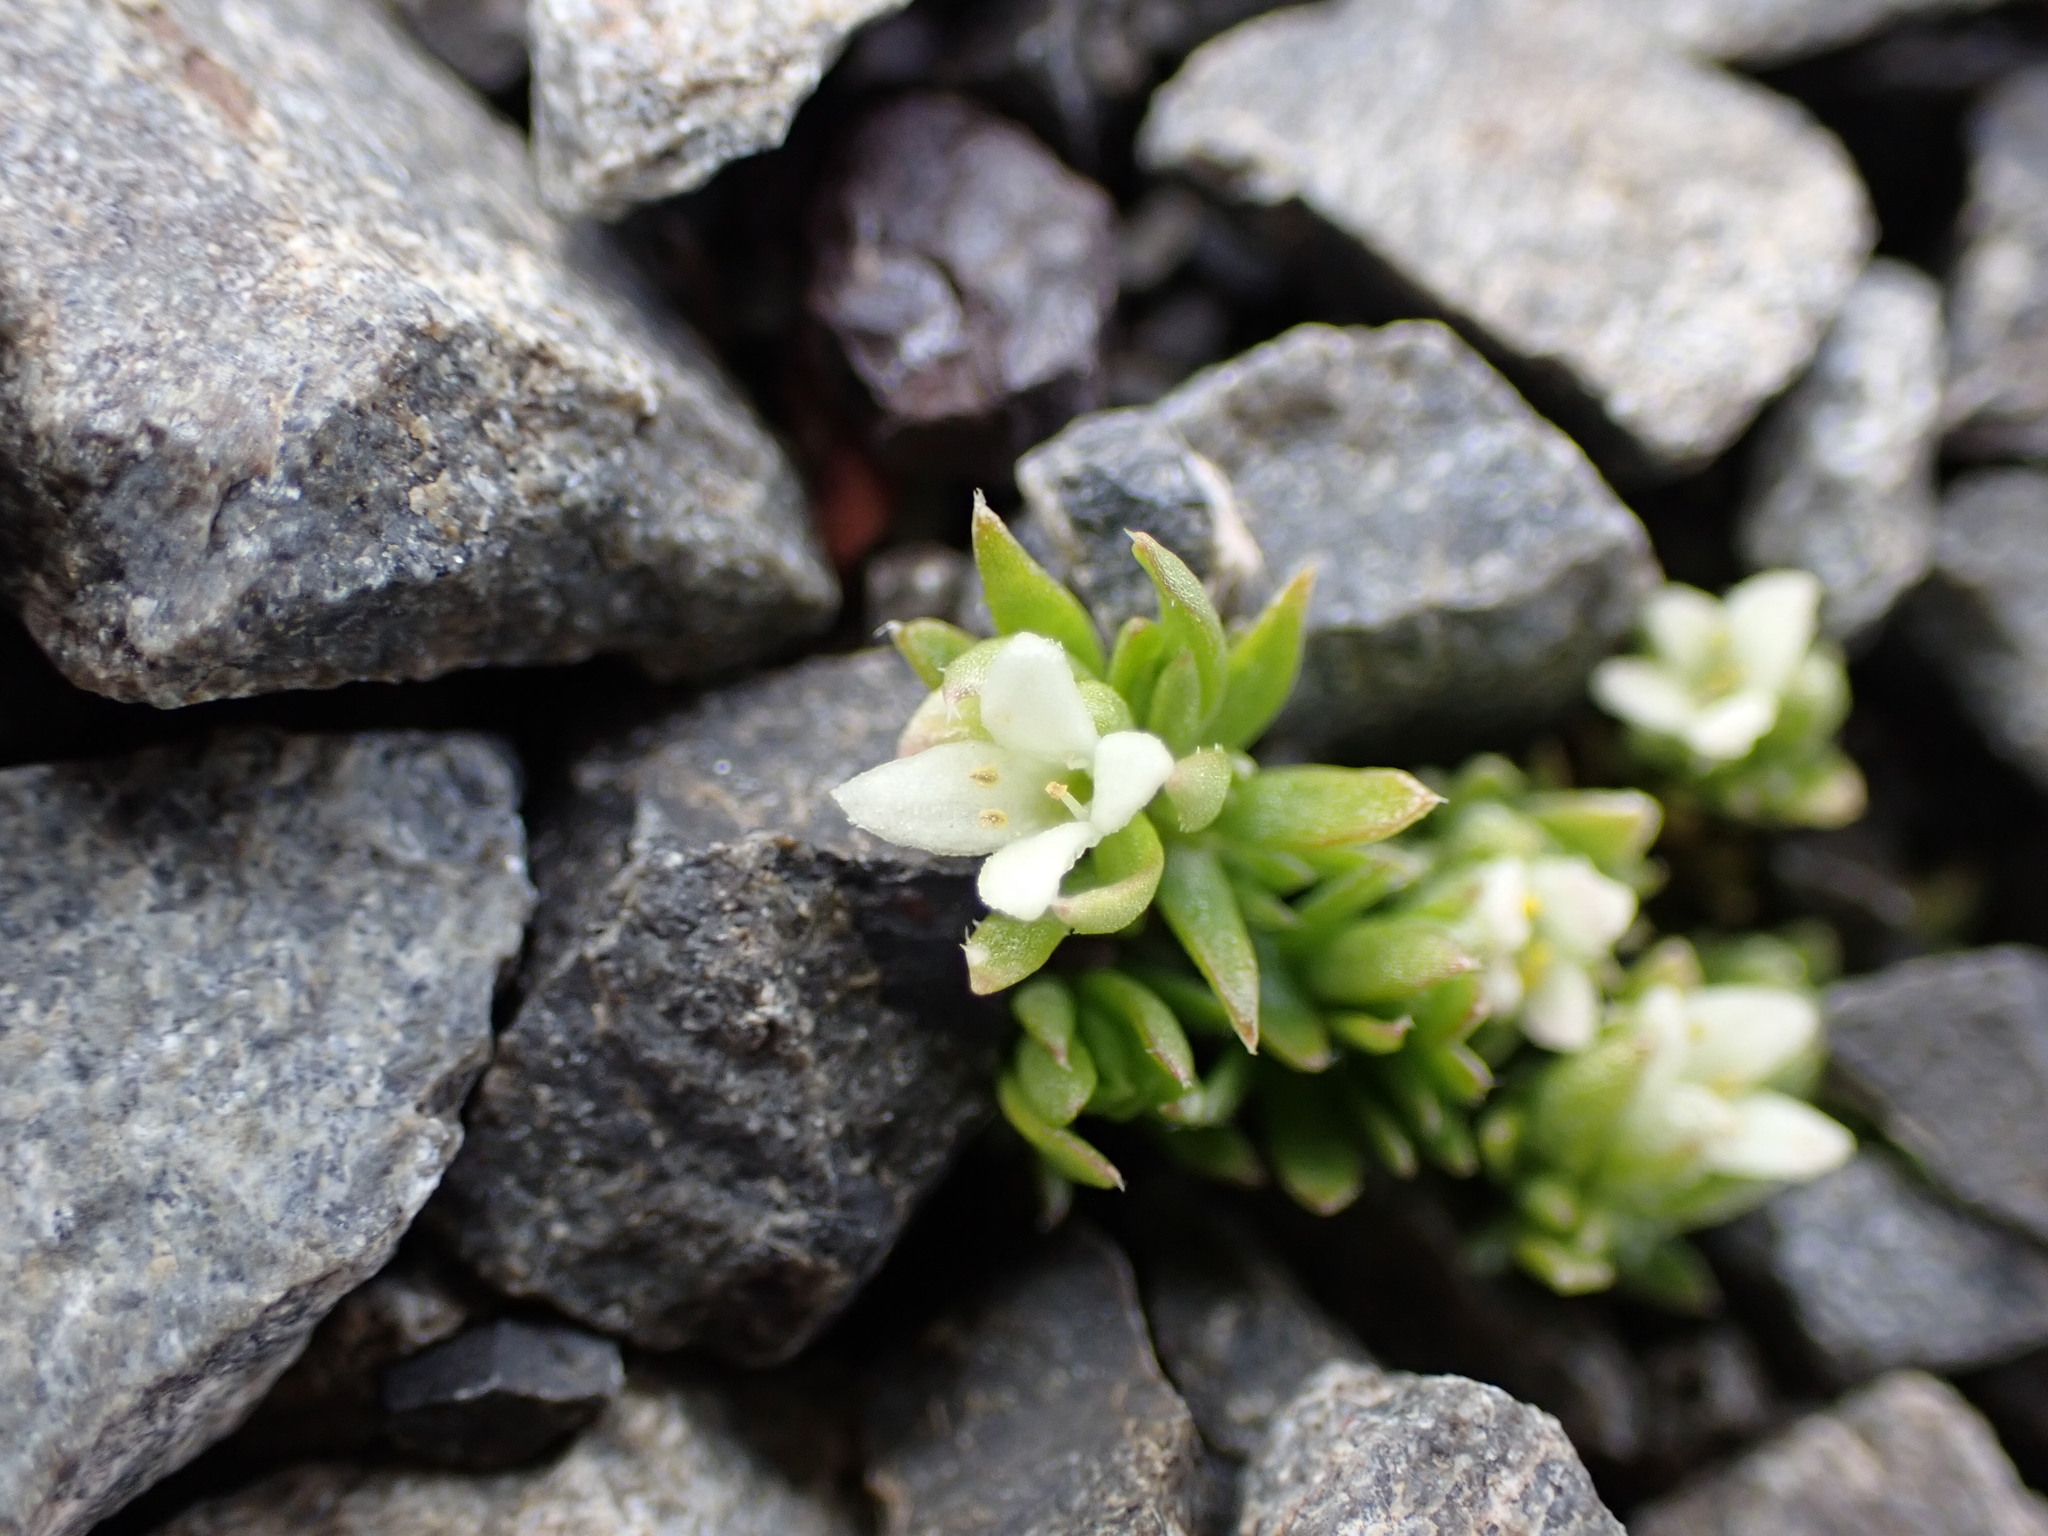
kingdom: Plantae
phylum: Tracheophyta
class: Magnoliopsida
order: Gentianales
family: Rubiaceae
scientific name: Rubiaceae
